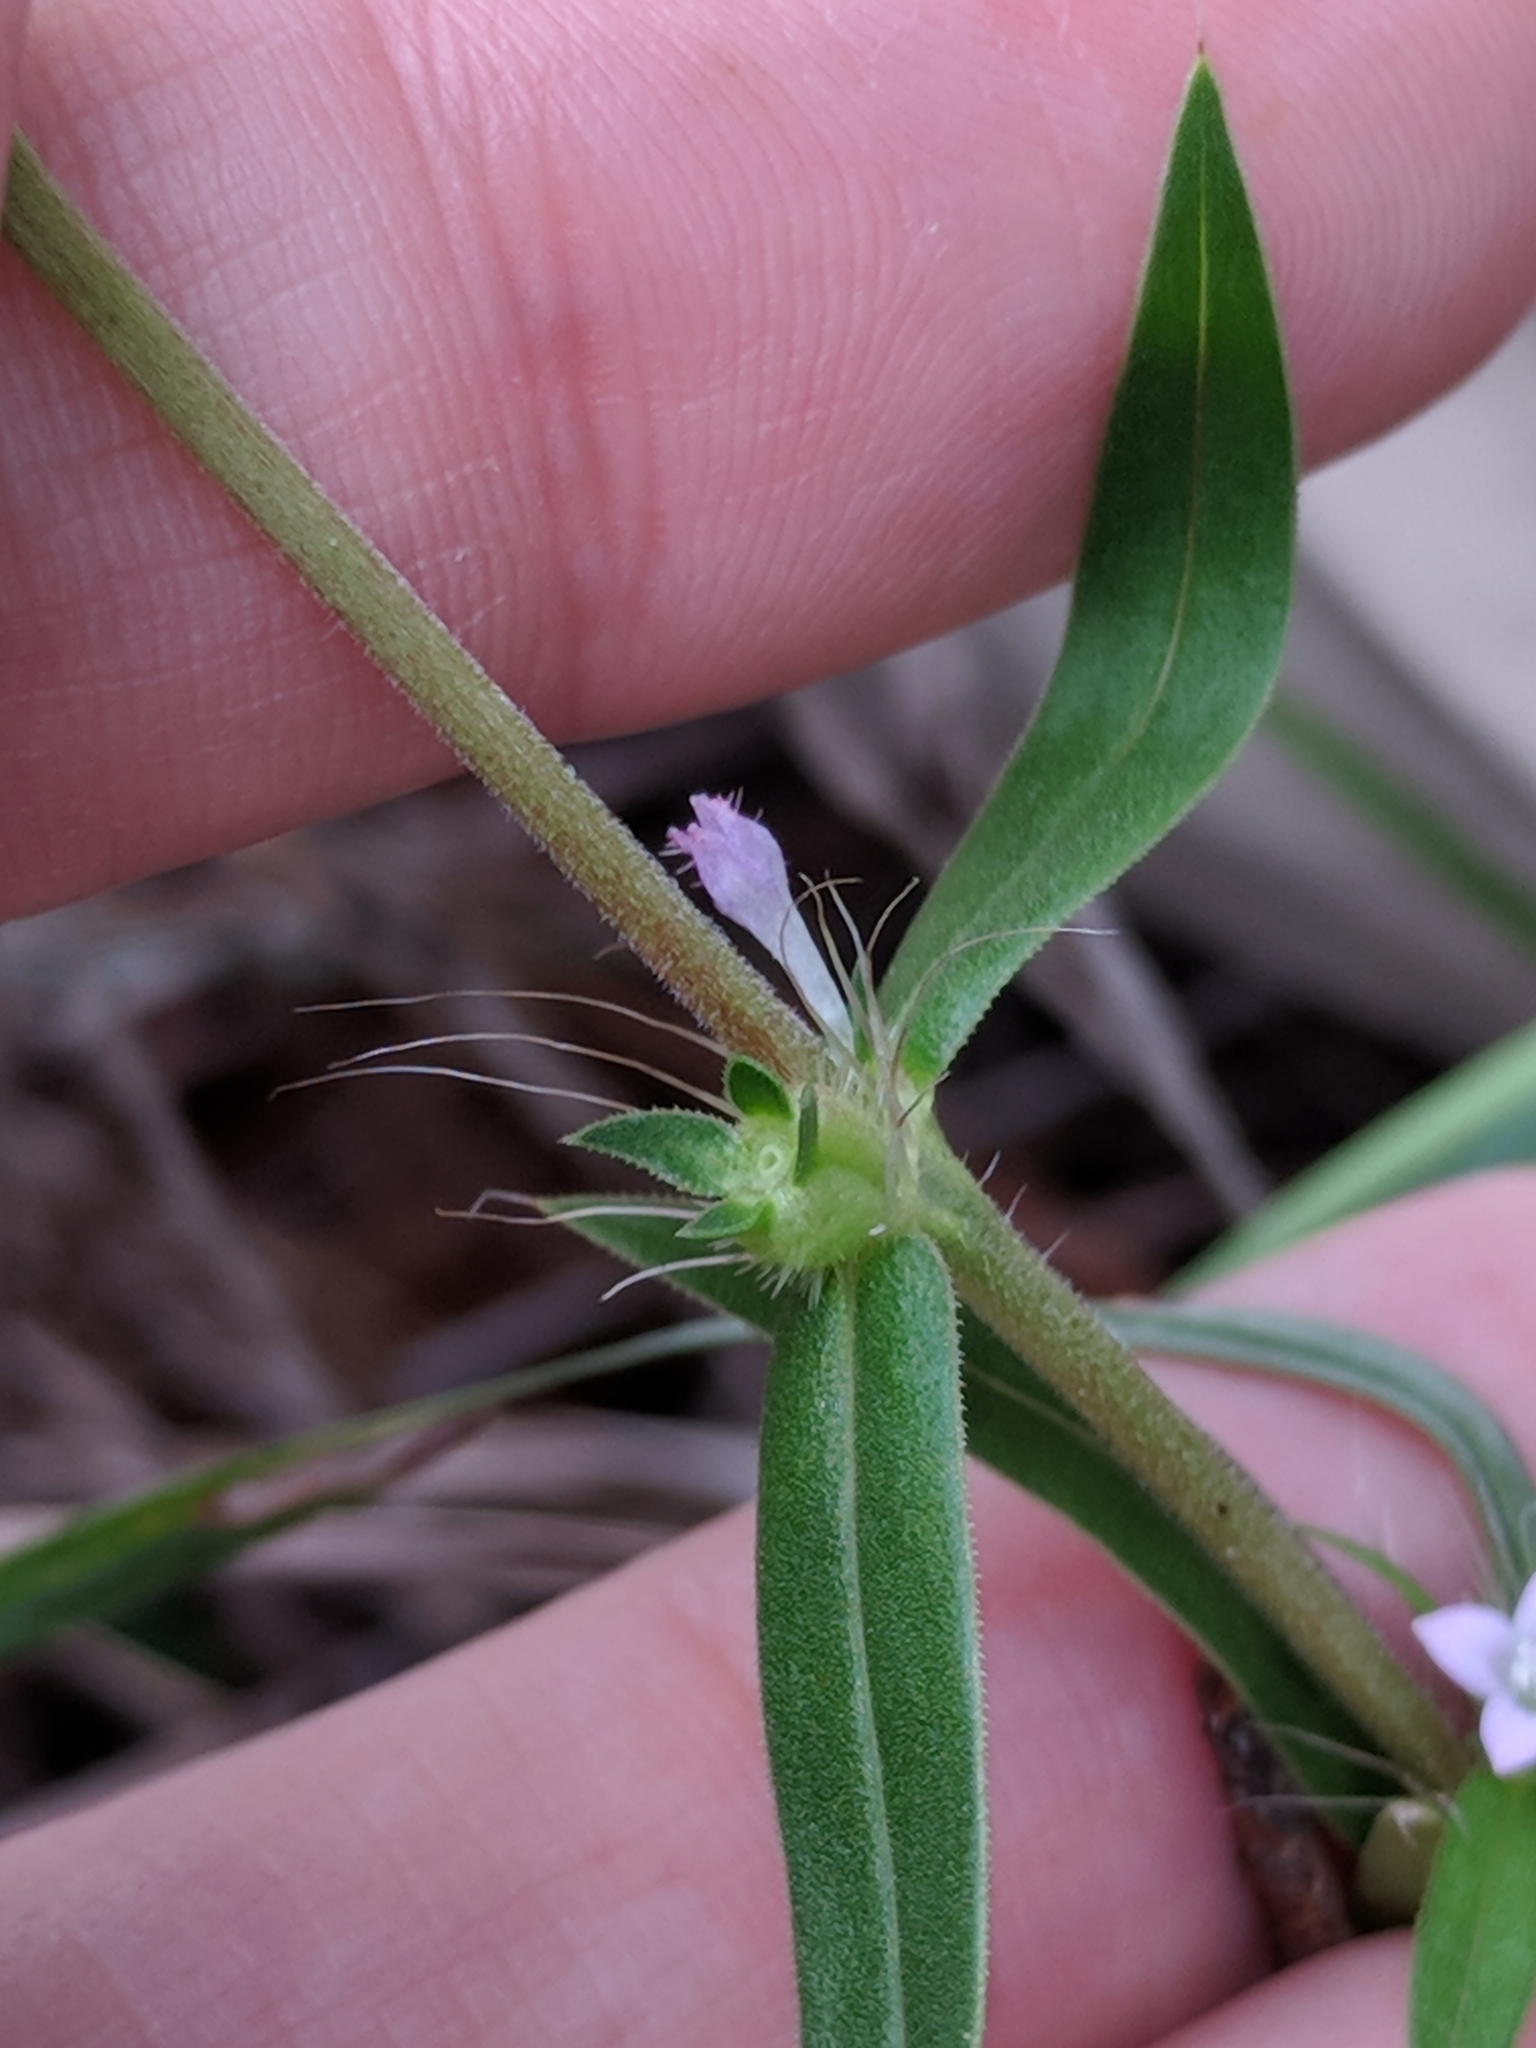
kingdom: Plantae
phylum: Tracheophyta
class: Magnoliopsida
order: Gentianales
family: Rubiaceae
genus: Hexasepalum
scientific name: Hexasepalum teres
